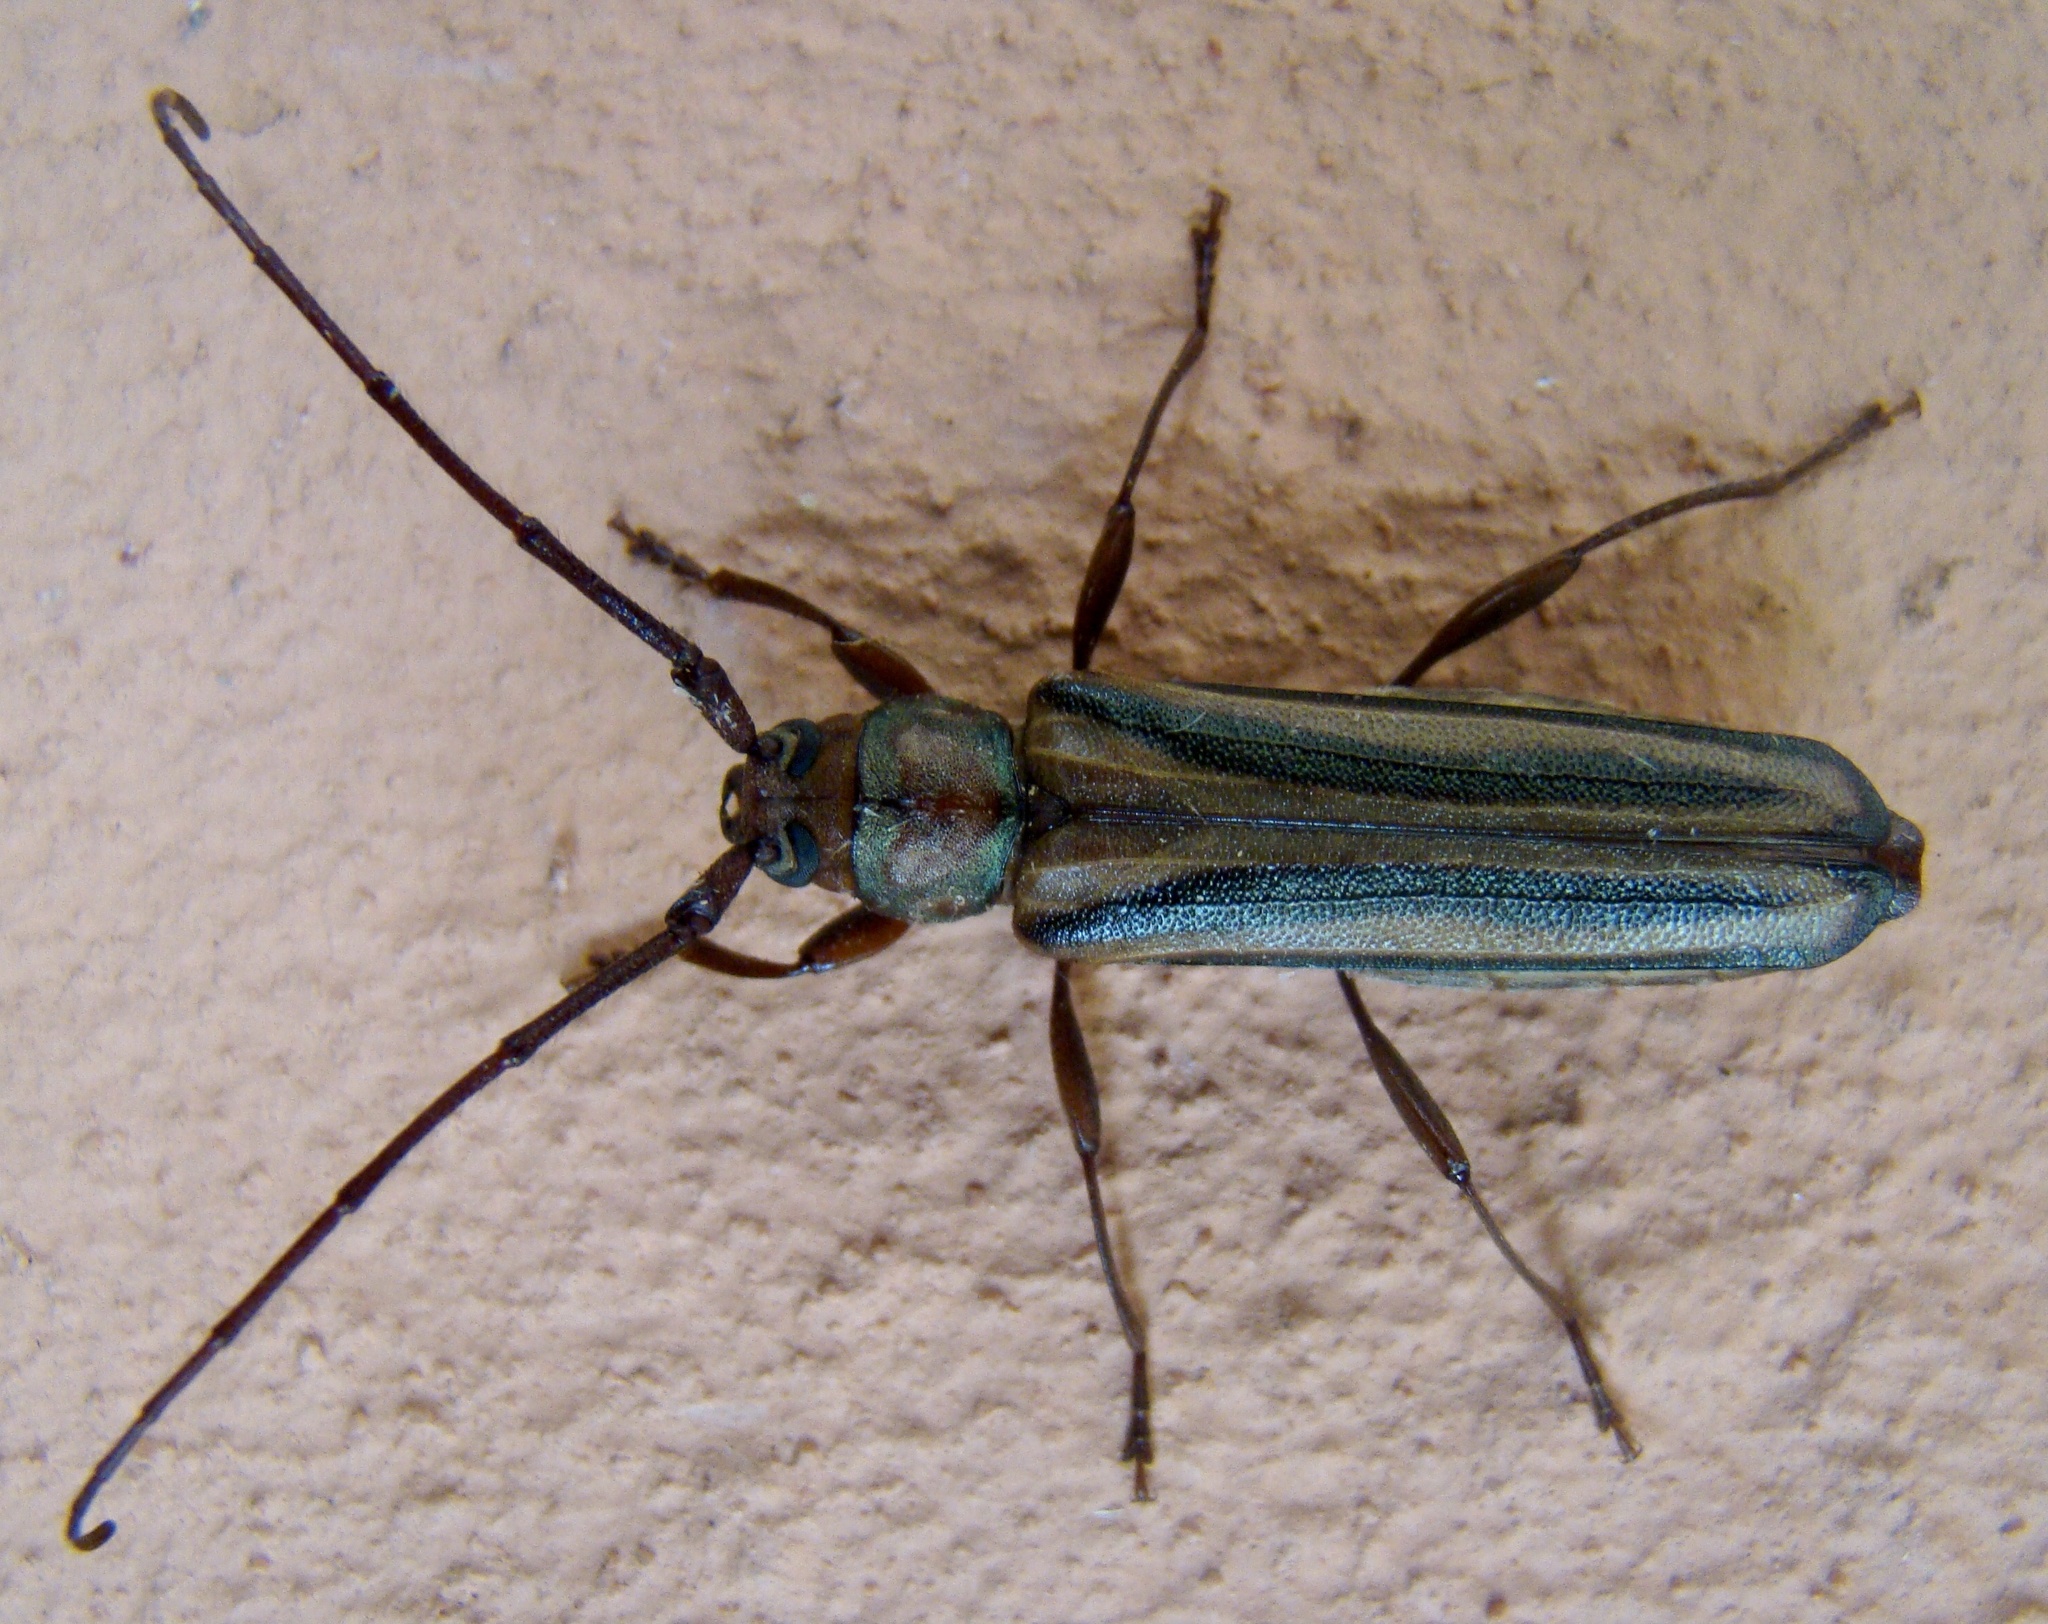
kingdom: Animalia
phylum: Arthropoda
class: Insecta
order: Coleoptera
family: Cerambycidae
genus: Xystrocera
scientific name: Xystrocera dispar
